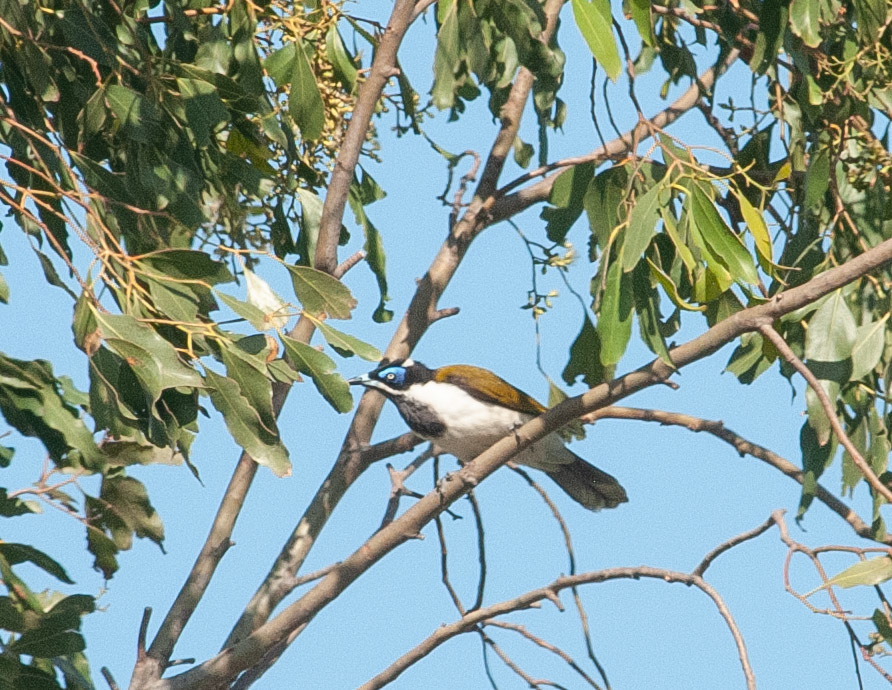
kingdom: Animalia
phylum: Chordata
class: Aves
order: Passeriformes
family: Meliphagidae
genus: Entomyzon
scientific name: Entomyzon cyanotis
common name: Blue-faced honeyeater
